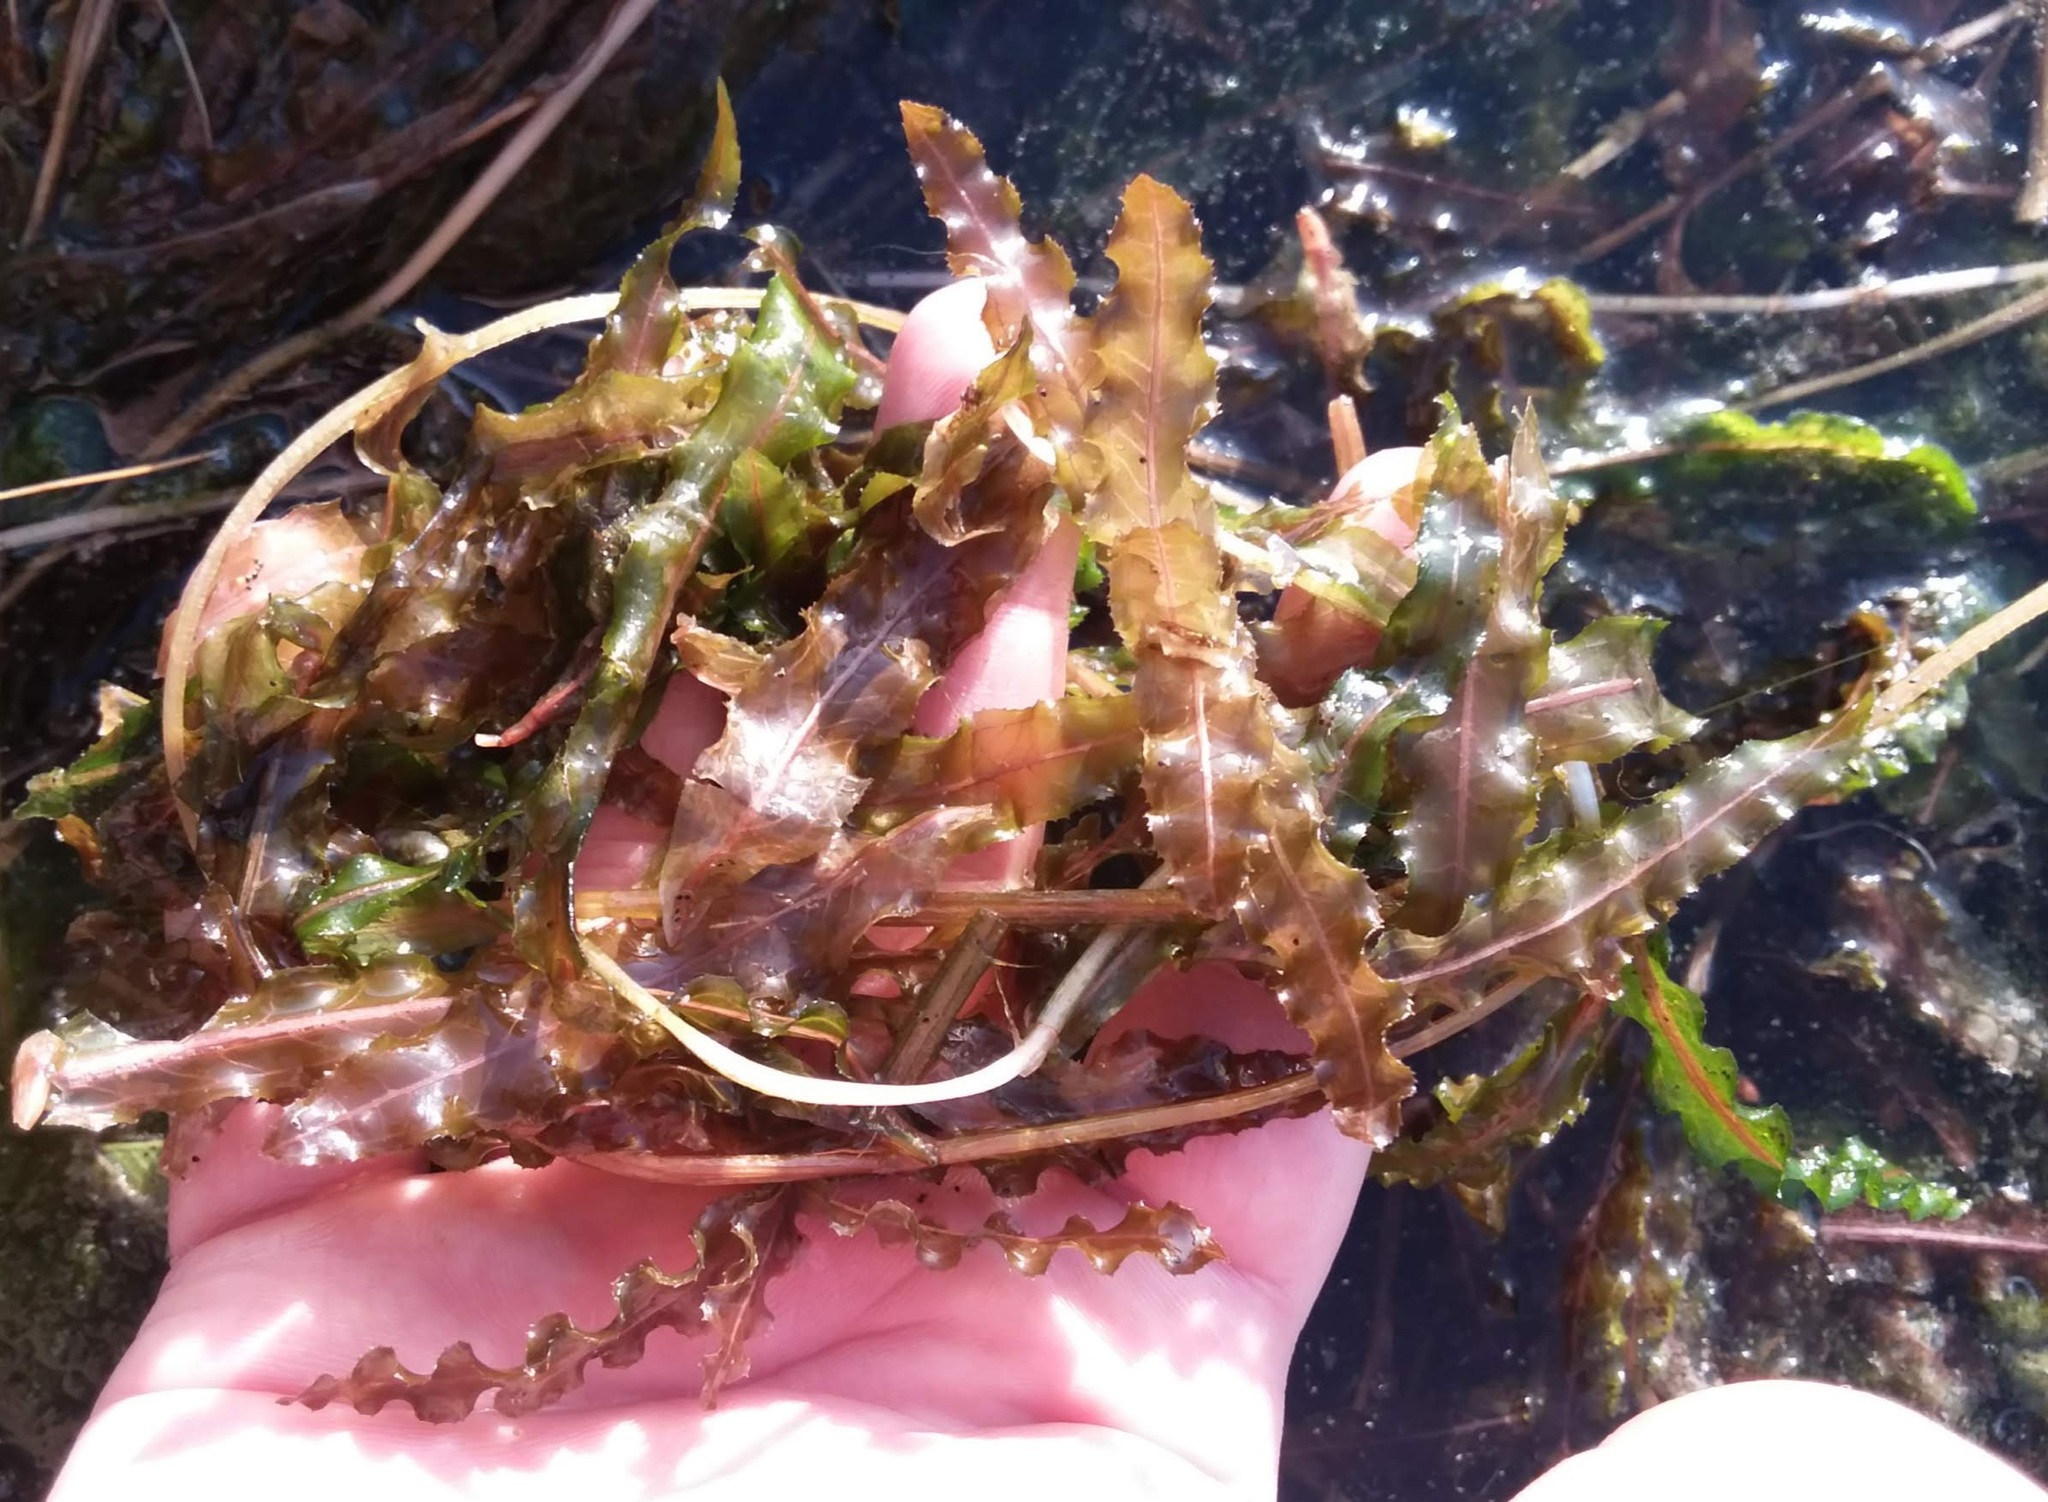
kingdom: Plantae
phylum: Tracheophyta
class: Liliopsida
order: Alismatales
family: Potamogetonaceae
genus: Potamogeton
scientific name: Potamogeton crispus
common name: Curled pondweed
